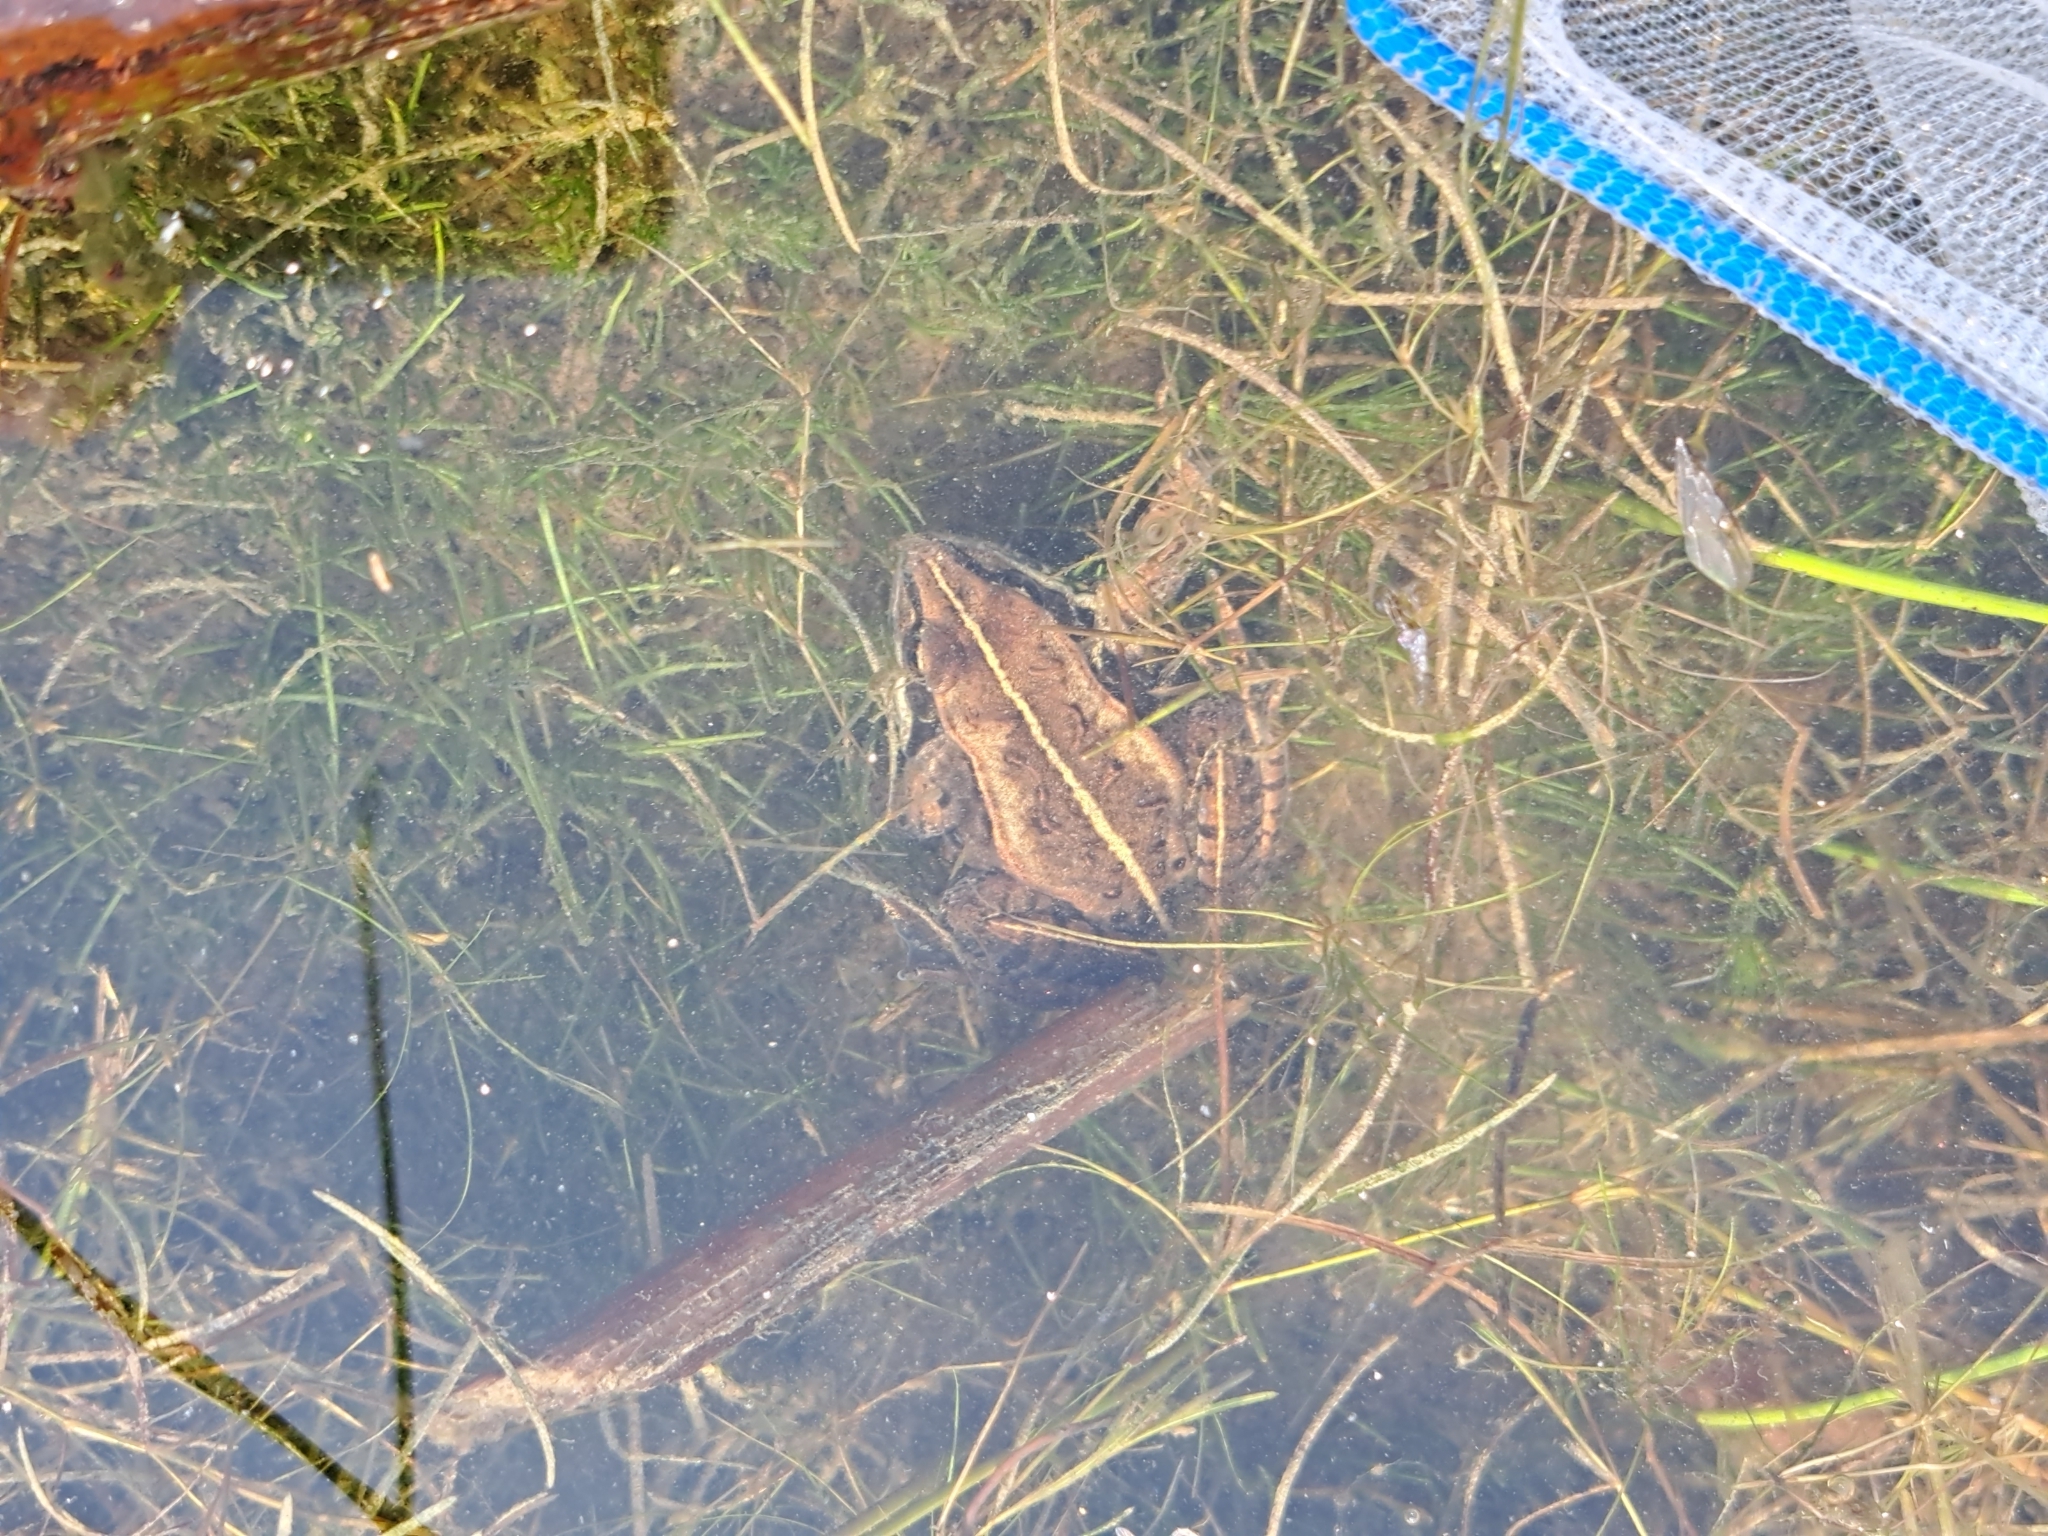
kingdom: Animalia
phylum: Chordata
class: Amphibia
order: Anura
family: Ranidae
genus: Lithobates
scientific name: Lithobates sylvaticus
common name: Wood frog
